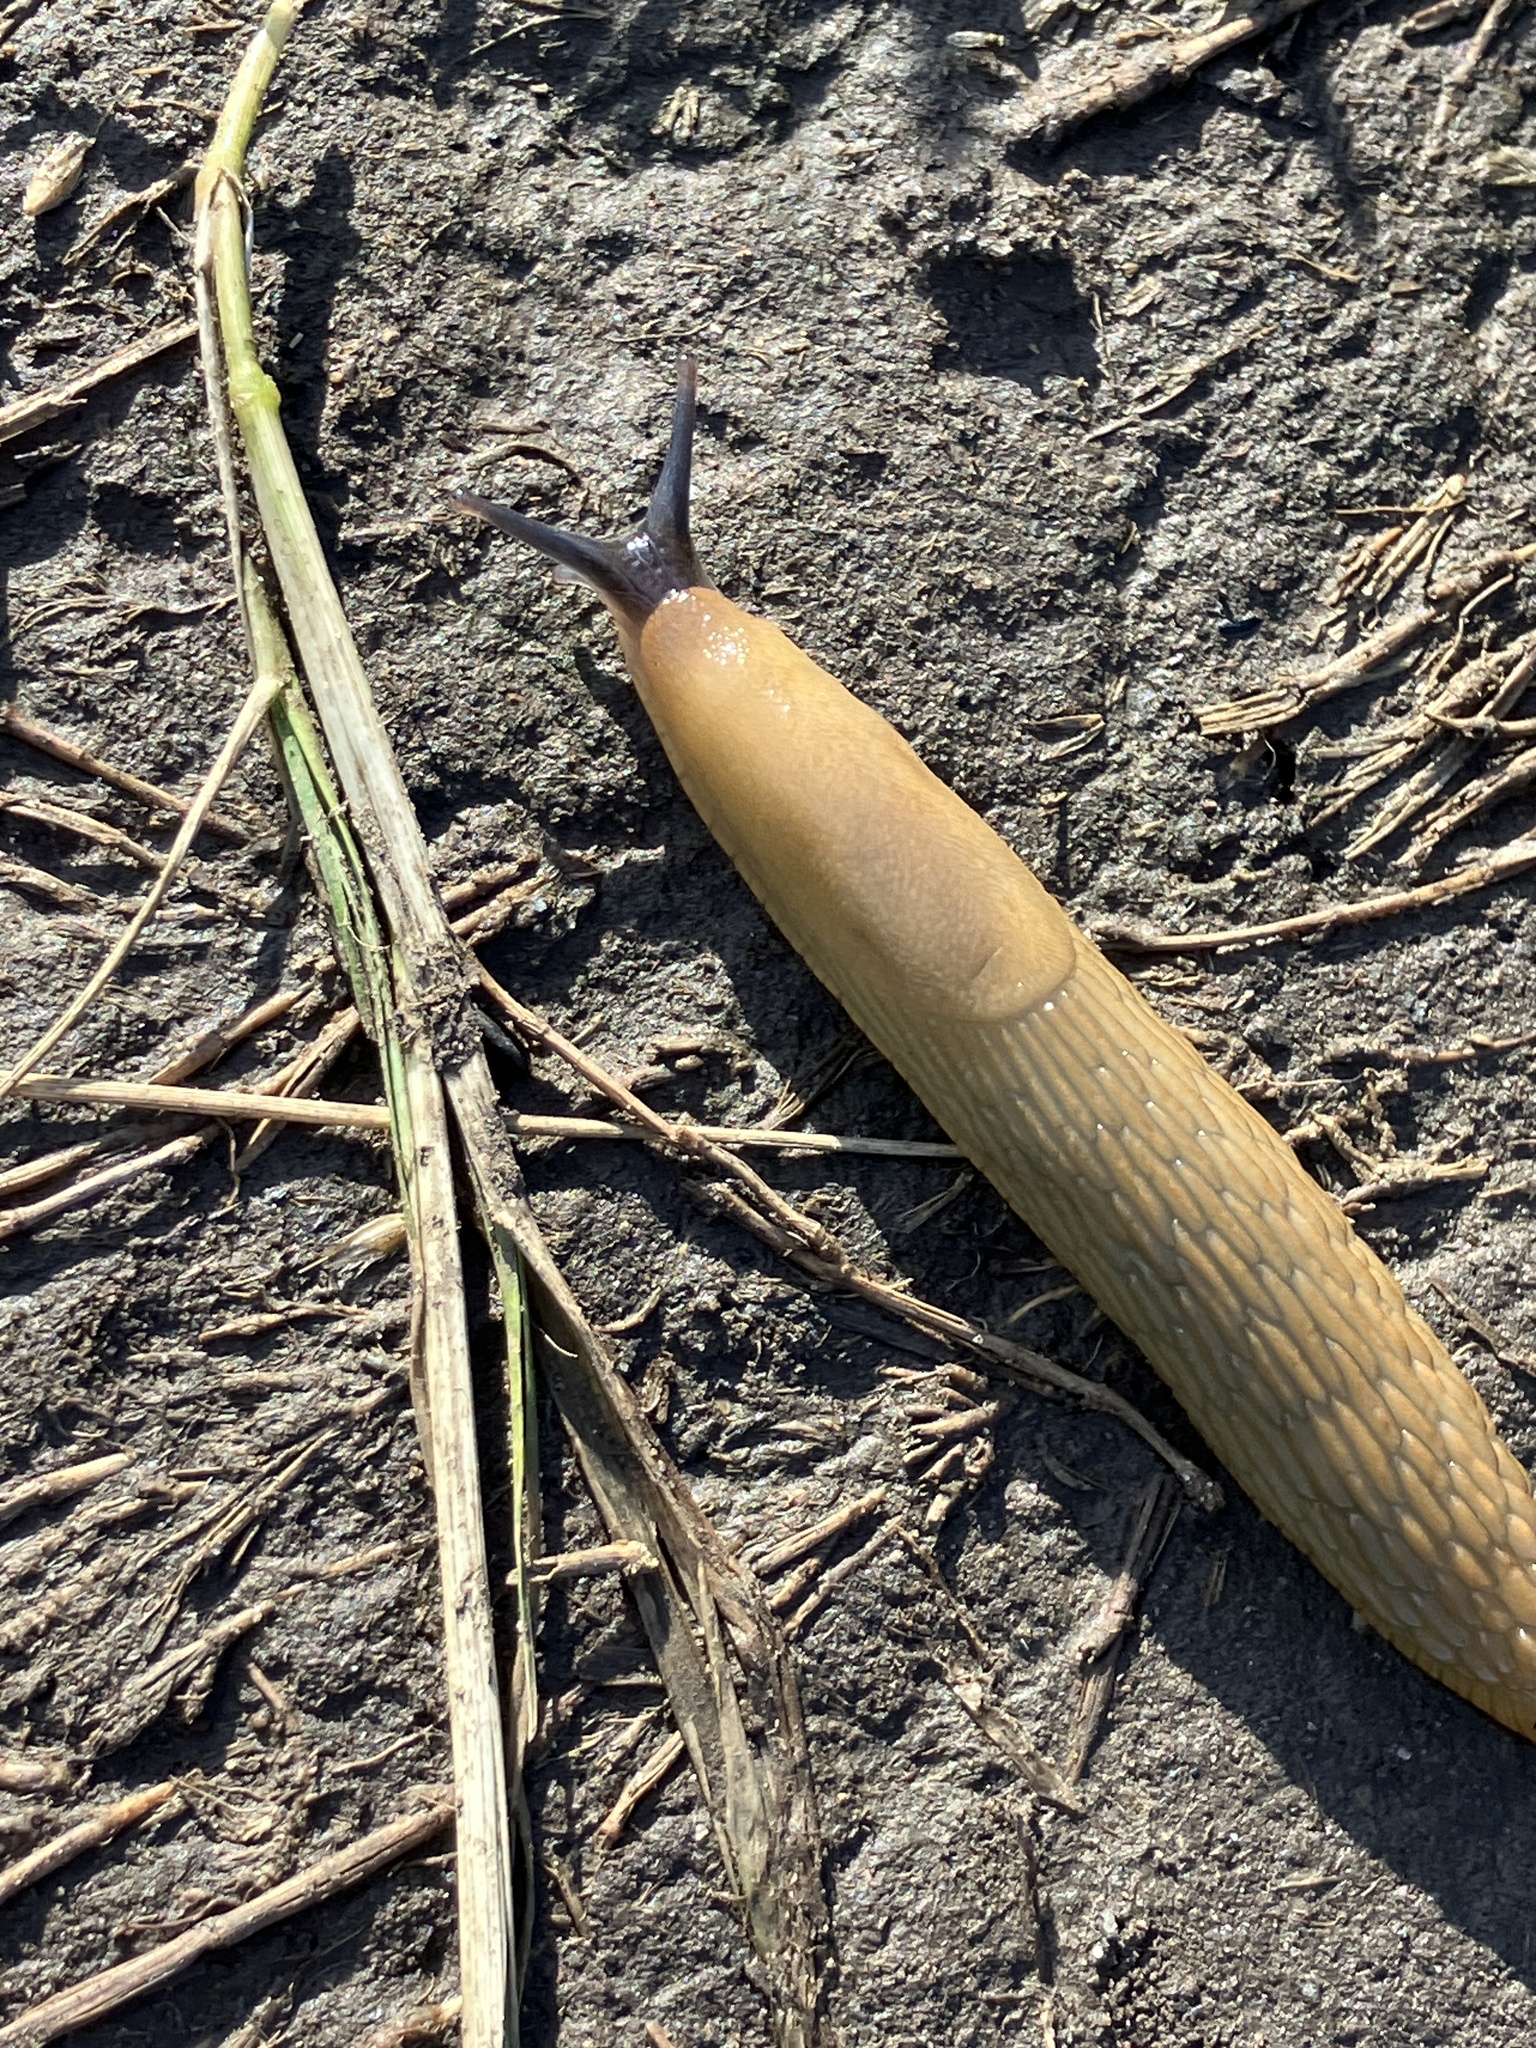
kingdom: Animalia
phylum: Mollusca
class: Gastropoda
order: Stylommatophora
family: Arionidae
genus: Arion
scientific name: Arion
